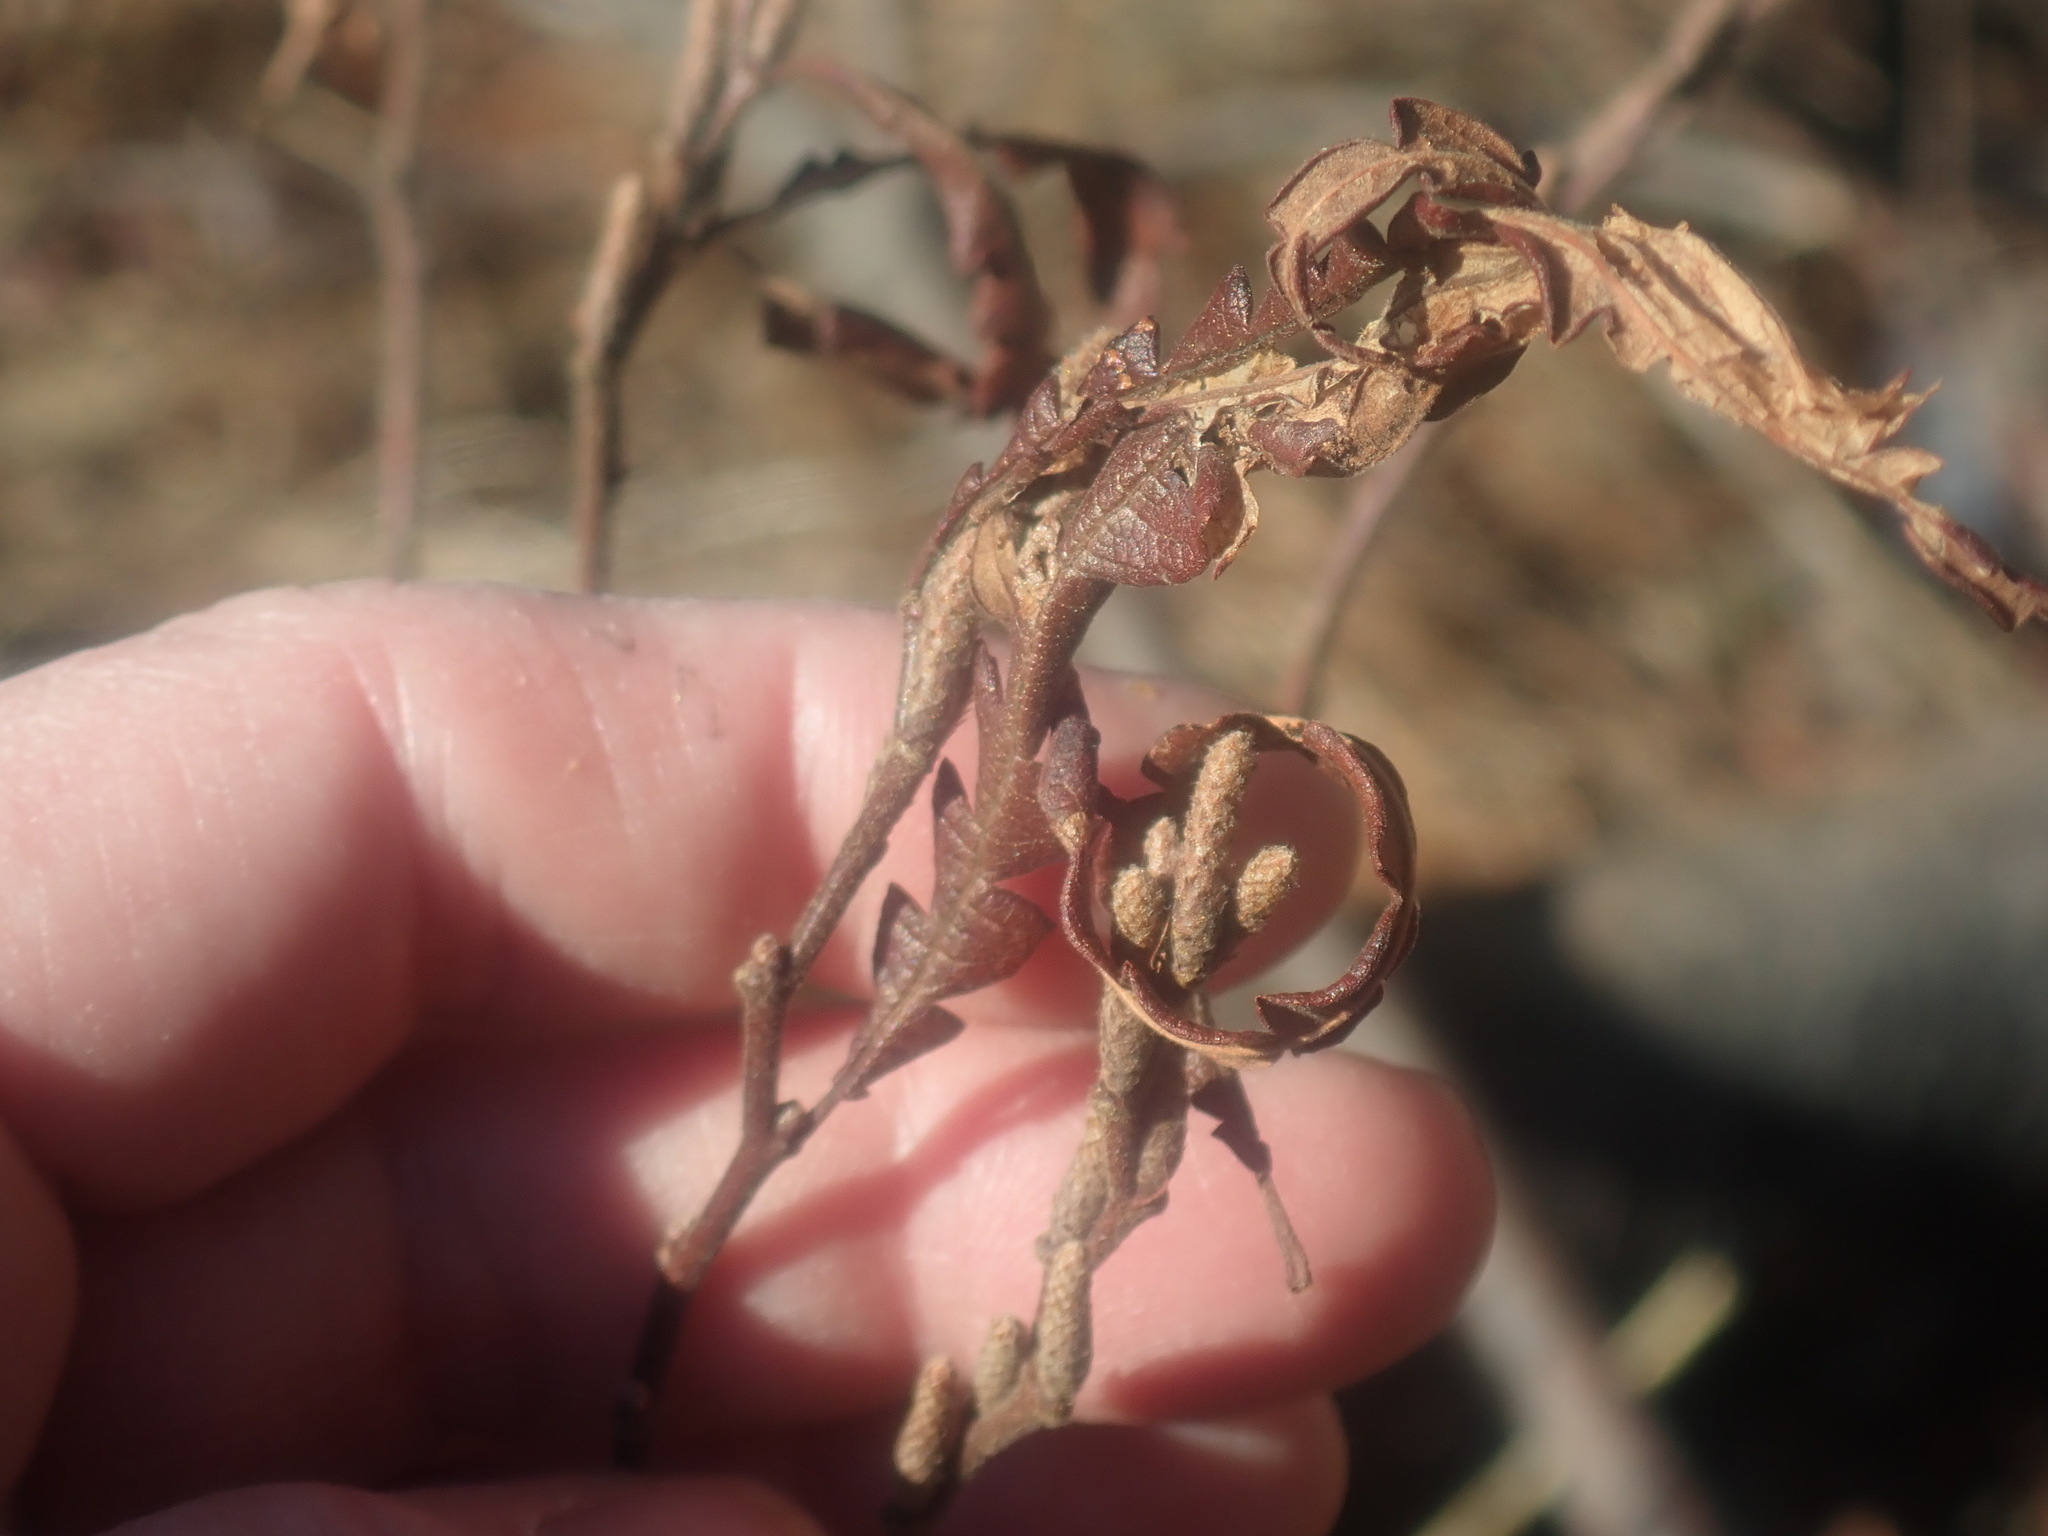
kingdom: Plantae
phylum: Tracheophyta
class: Magnoliopsida
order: Fagales
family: Myricaceae
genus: Comptonia
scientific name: Comptonia peregrina
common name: Sweet-fern
